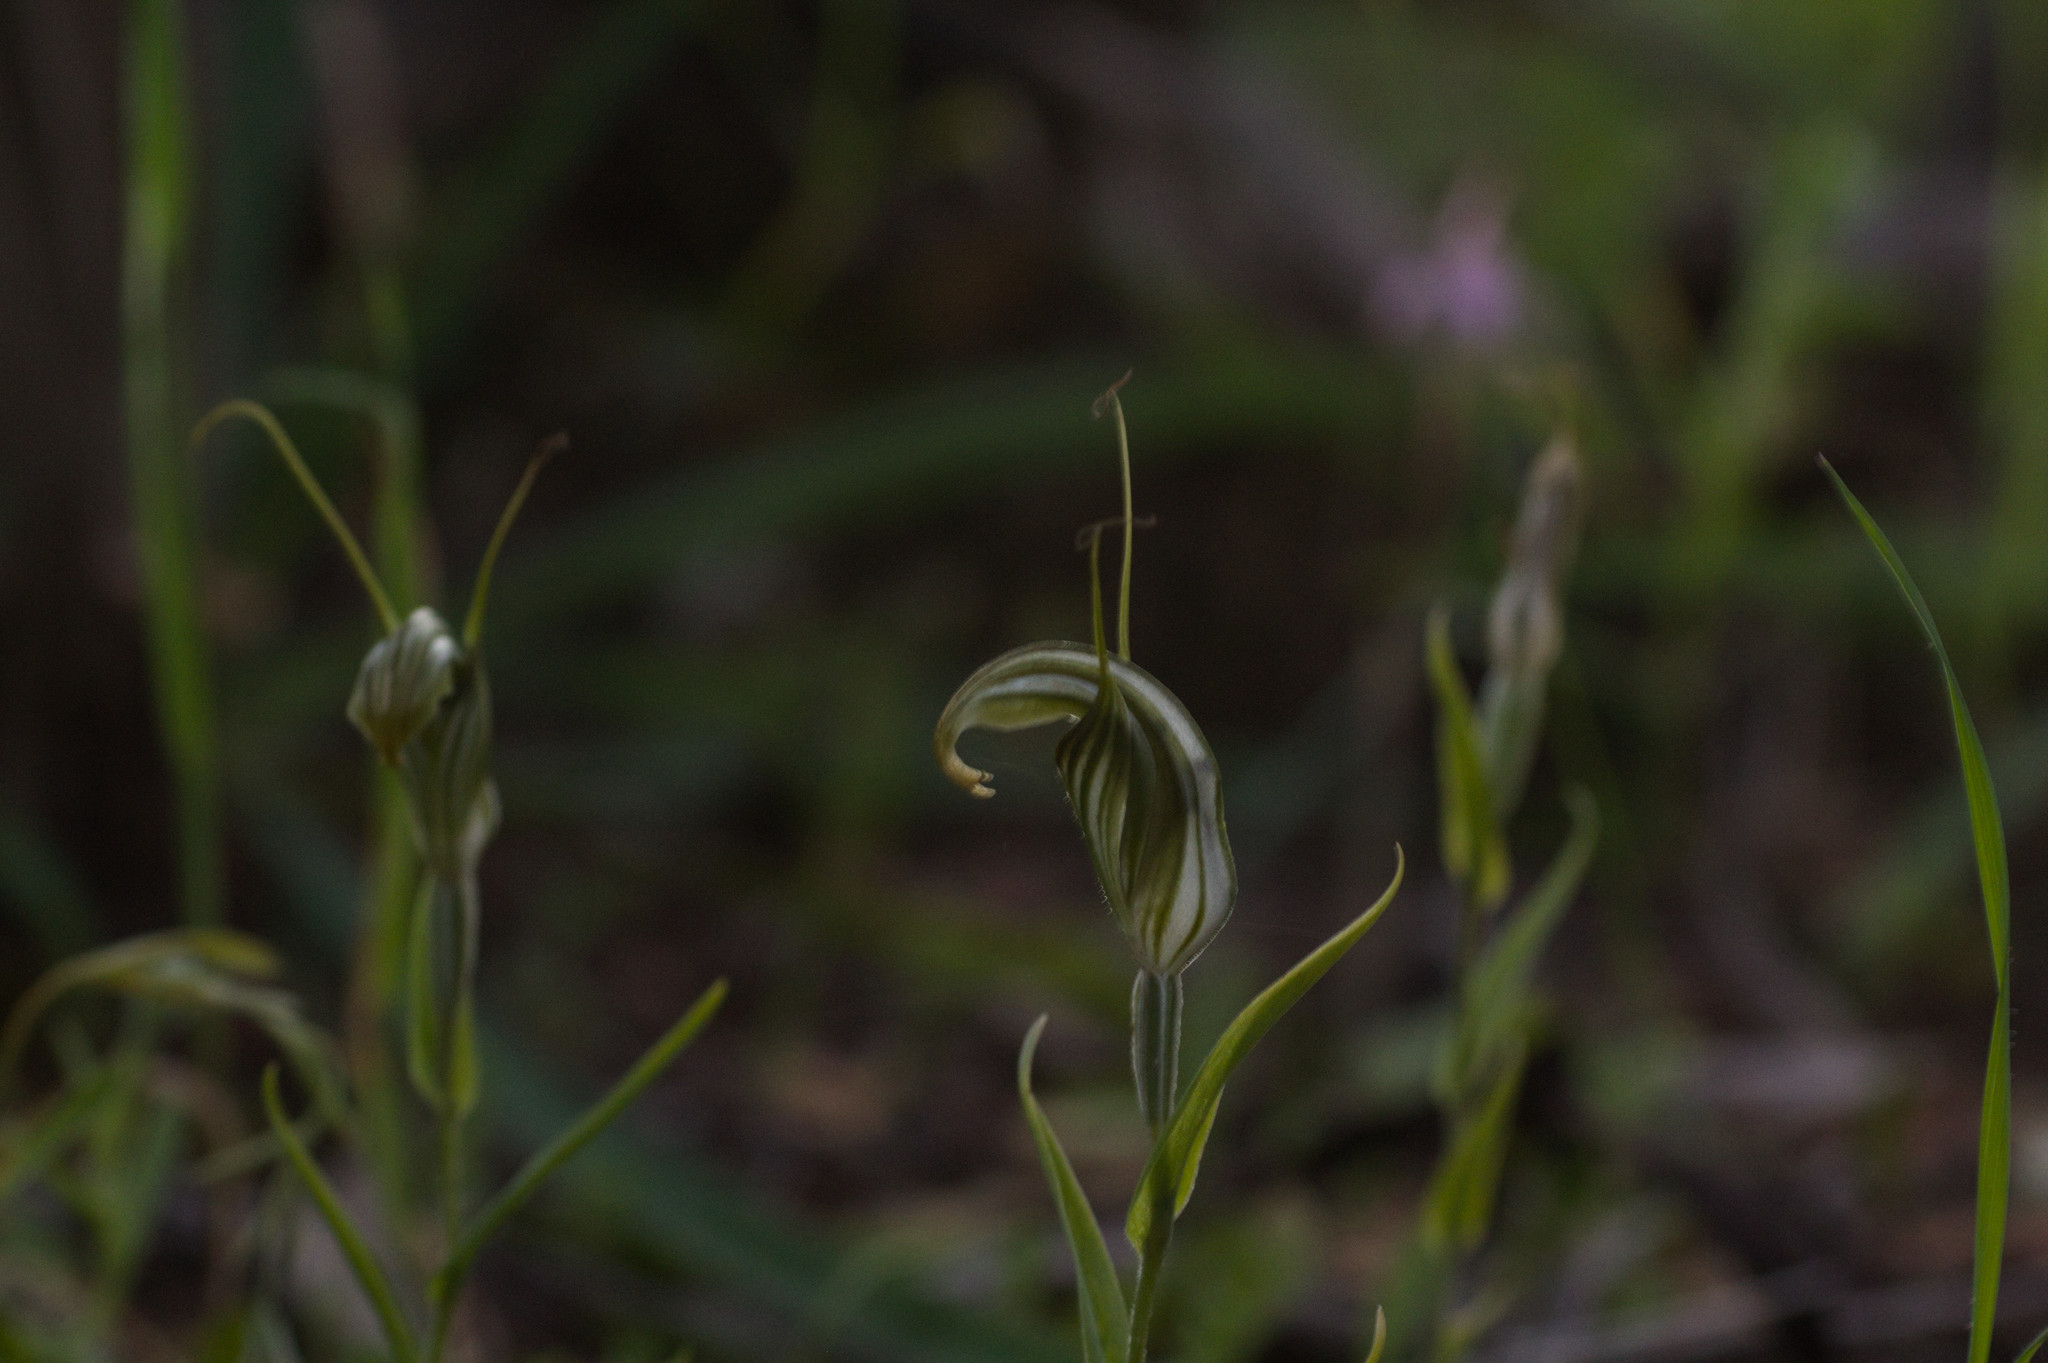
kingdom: Plantae
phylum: Tracheophyta
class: Liliopsida
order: Asparagales
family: Orchidaceae
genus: Pterostylis
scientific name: Pterostylis scabra
